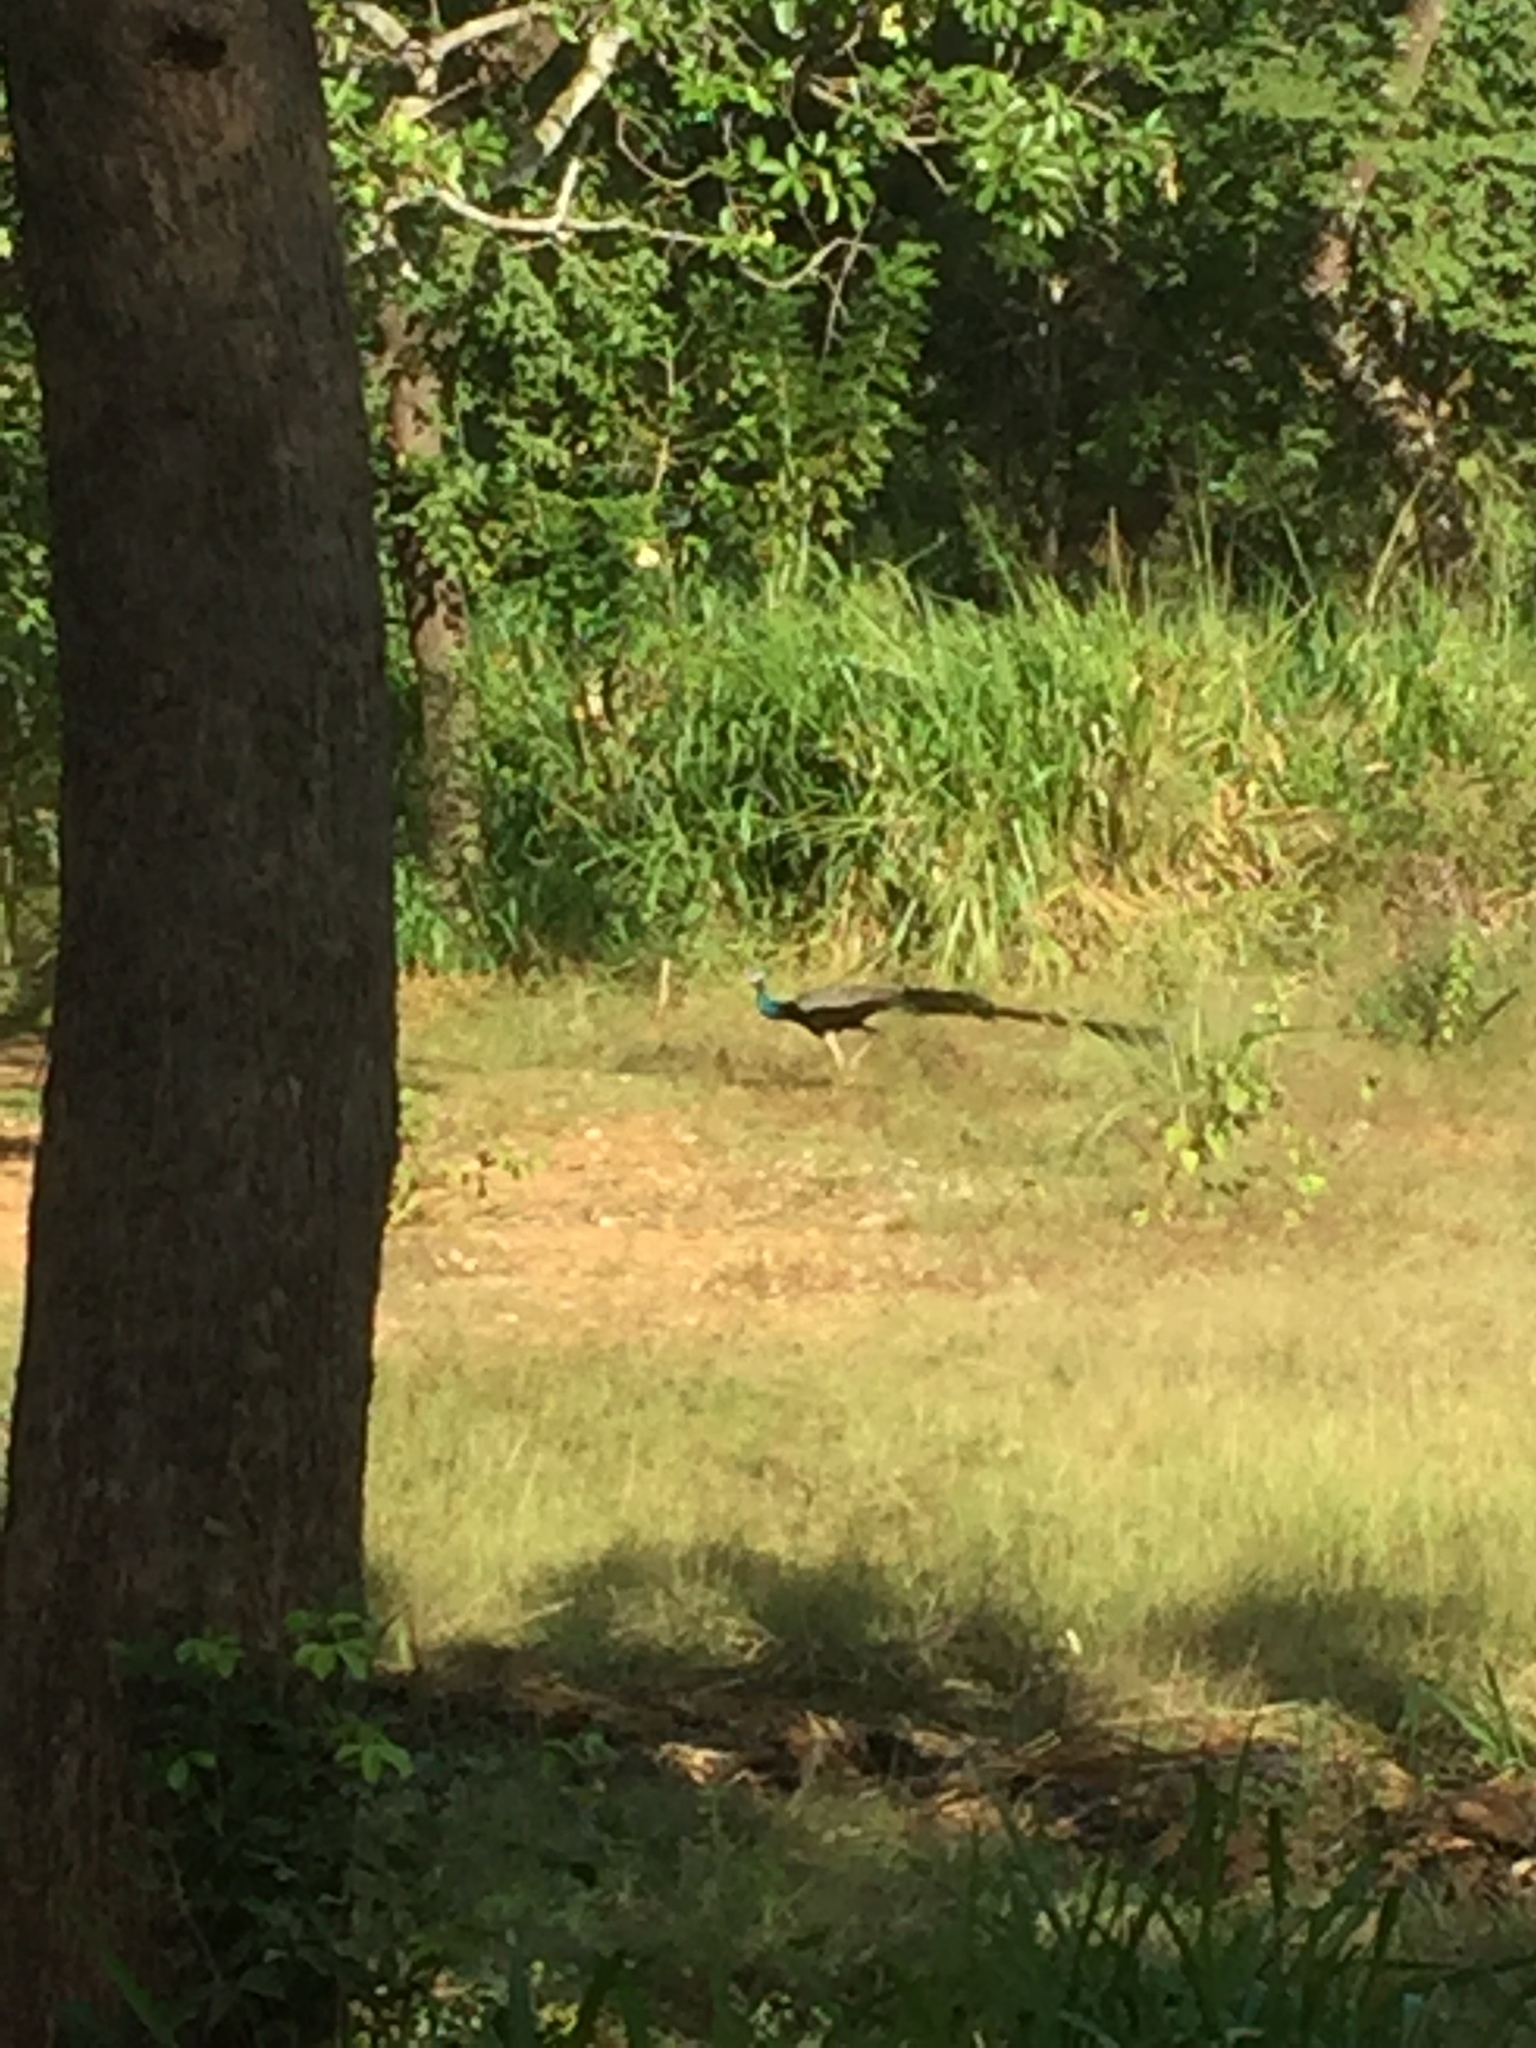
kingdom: Animalia
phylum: Chordata
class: Aves
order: Galliformes
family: Phasianidae
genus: Pavo
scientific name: Pavo cristatus
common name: Indian peafowl
